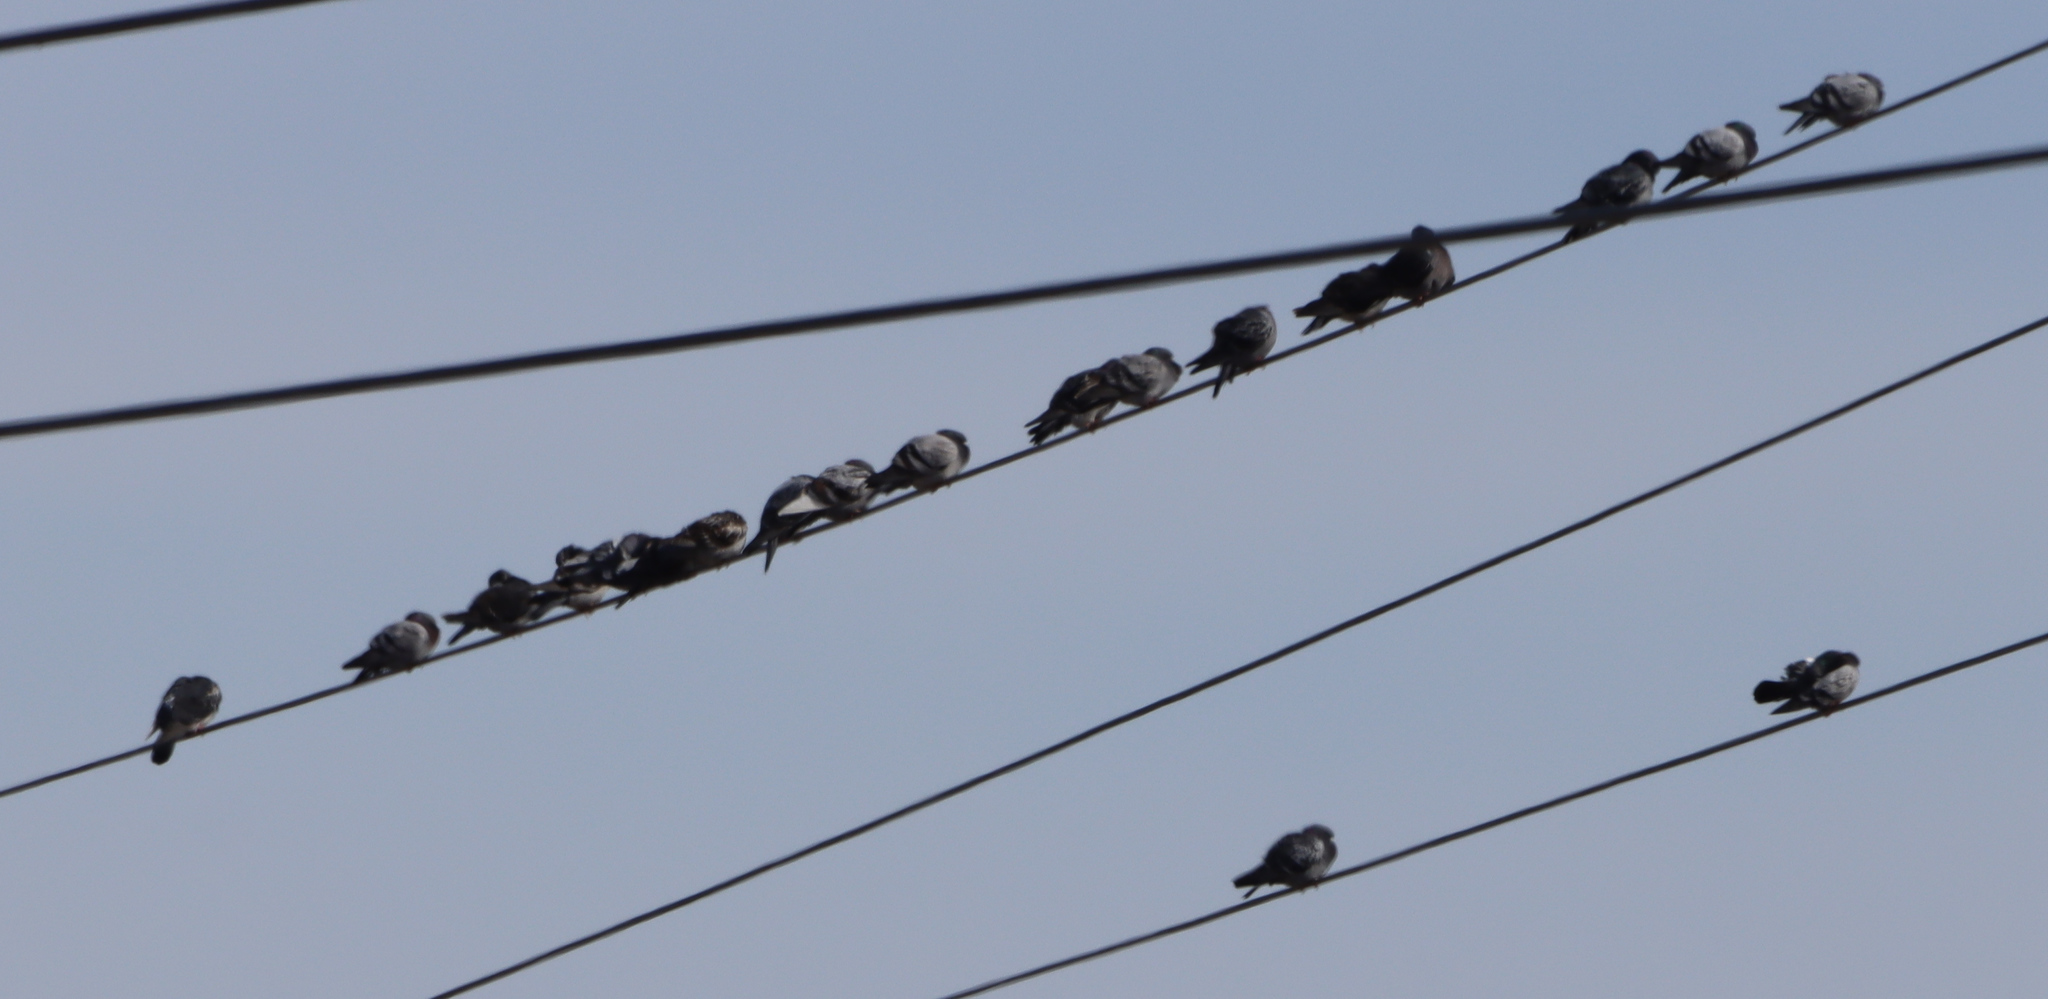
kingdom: Animalia
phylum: Chordata
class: Aves
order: Columbiformes
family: Columbidae
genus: Columba
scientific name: Columba livia
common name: Rock pigeon
